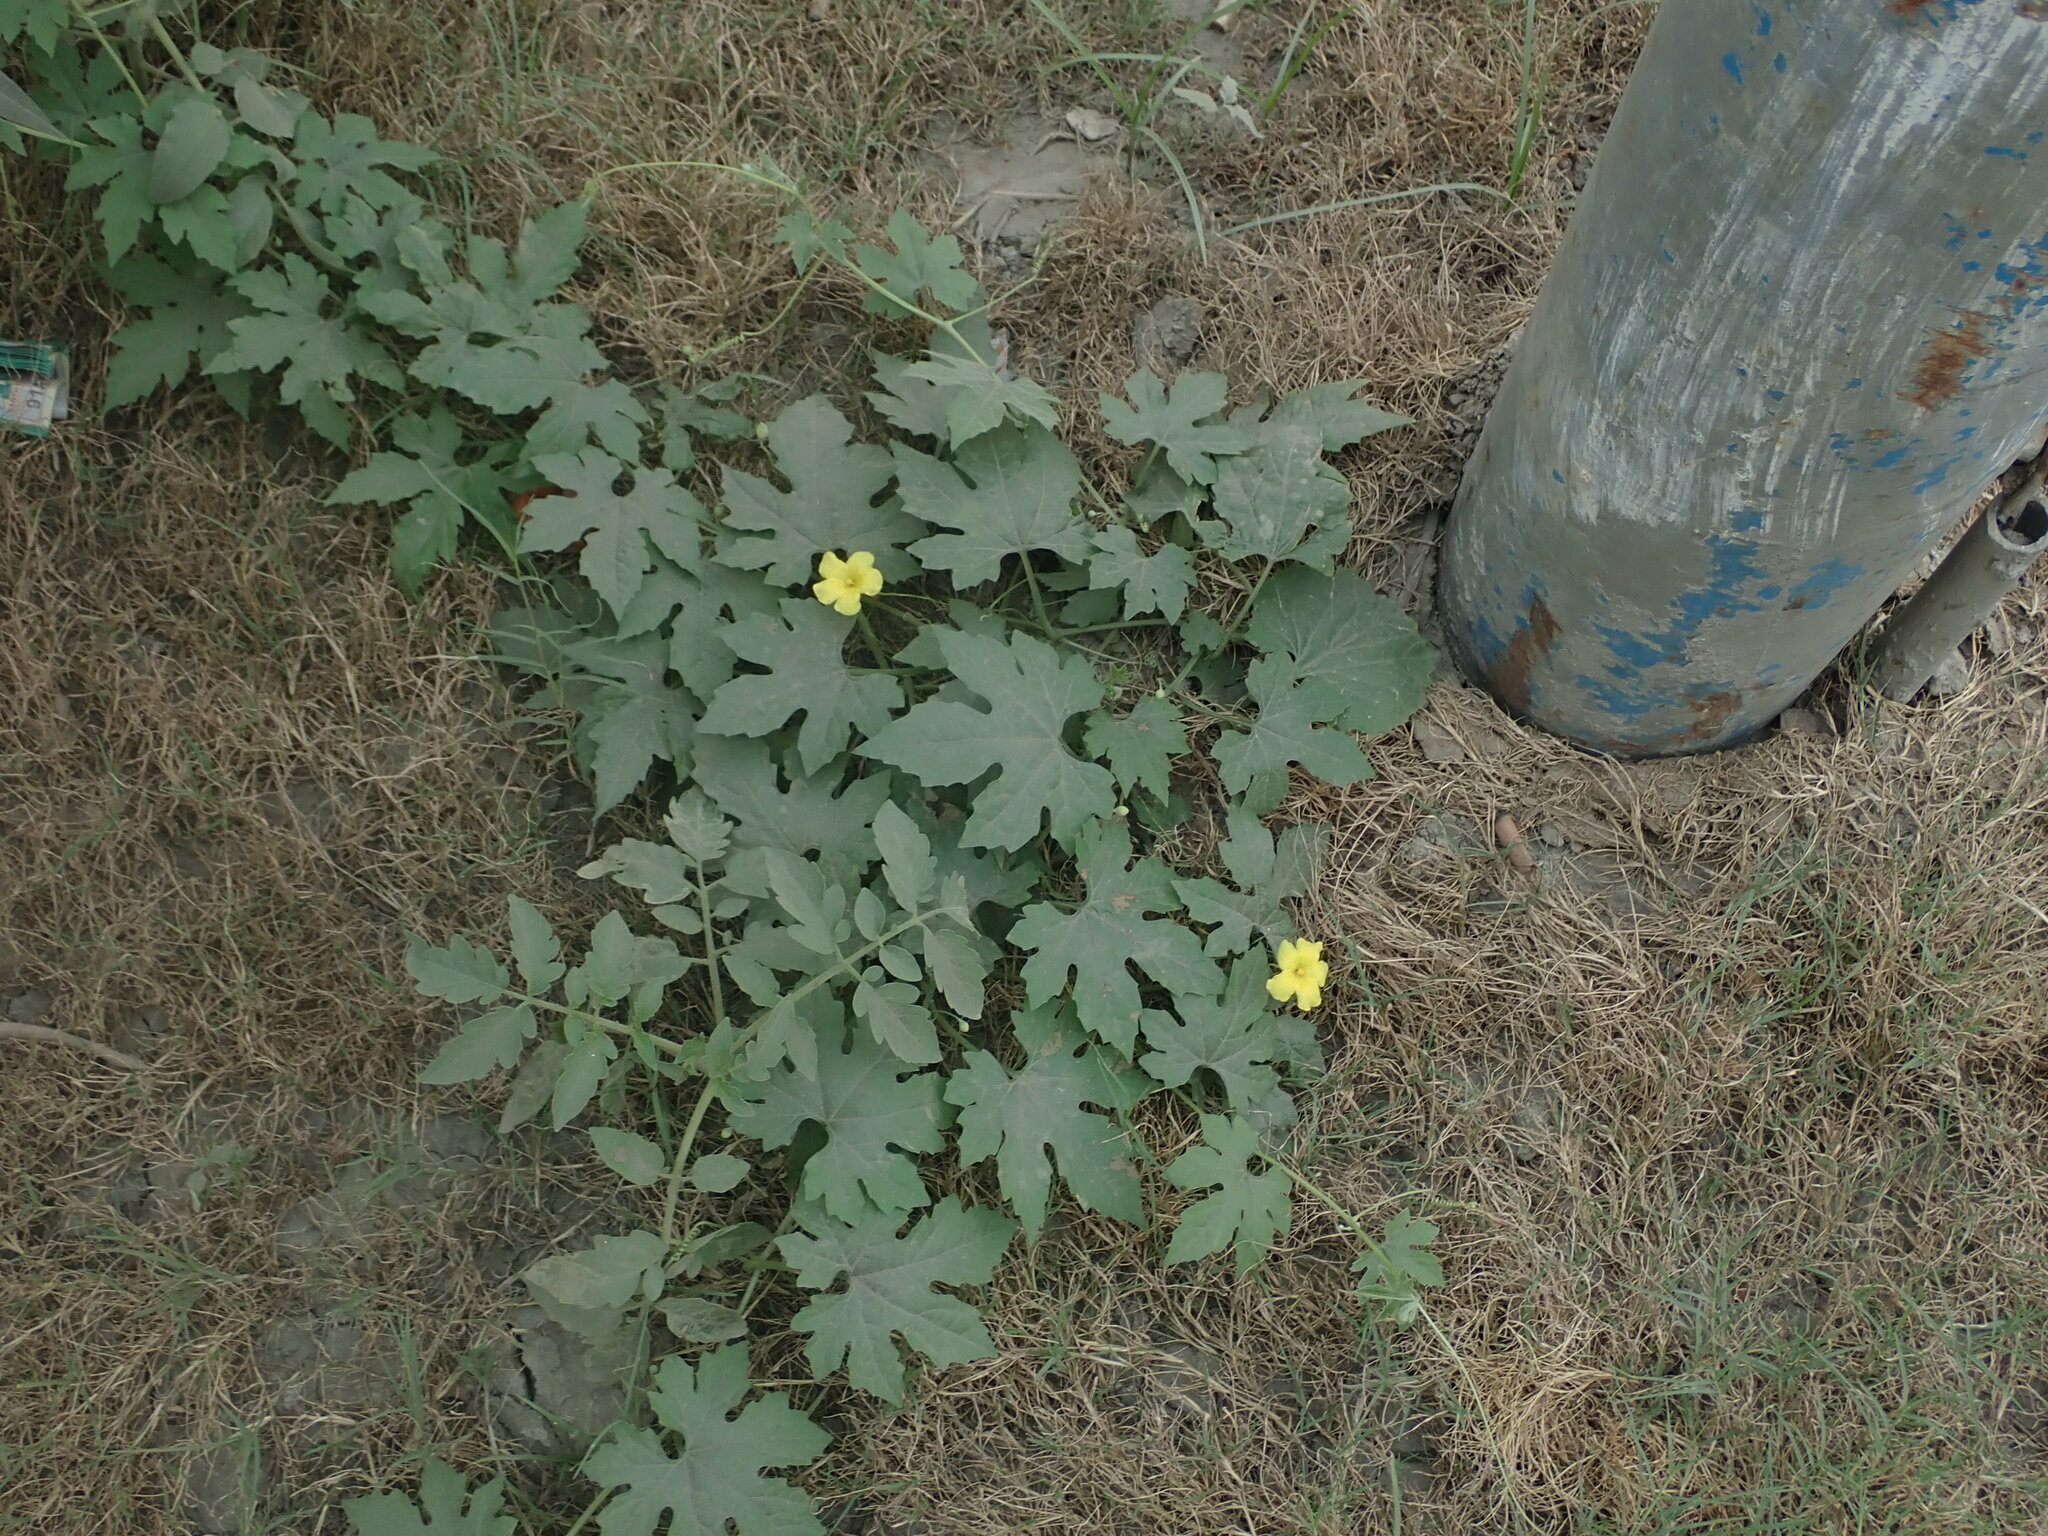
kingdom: Plantae
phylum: Tracheophyta
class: Magnoliopsida
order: Cucurbitales
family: Cucurbitaceae
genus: Momordica
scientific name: Momordica charantia
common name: Balsampear
